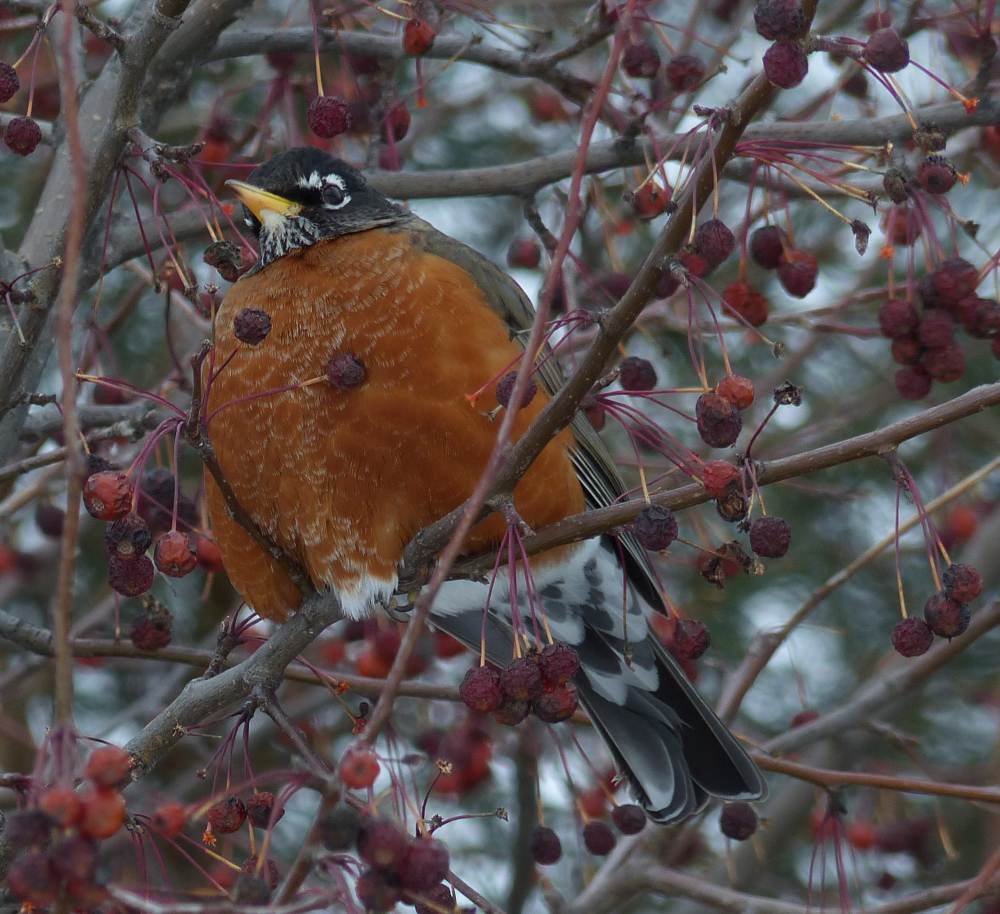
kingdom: Animalia
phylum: Chordata
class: Aves
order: Passeriformes
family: Turdidae
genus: Turdus
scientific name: Turdus migratorius
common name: American robin
